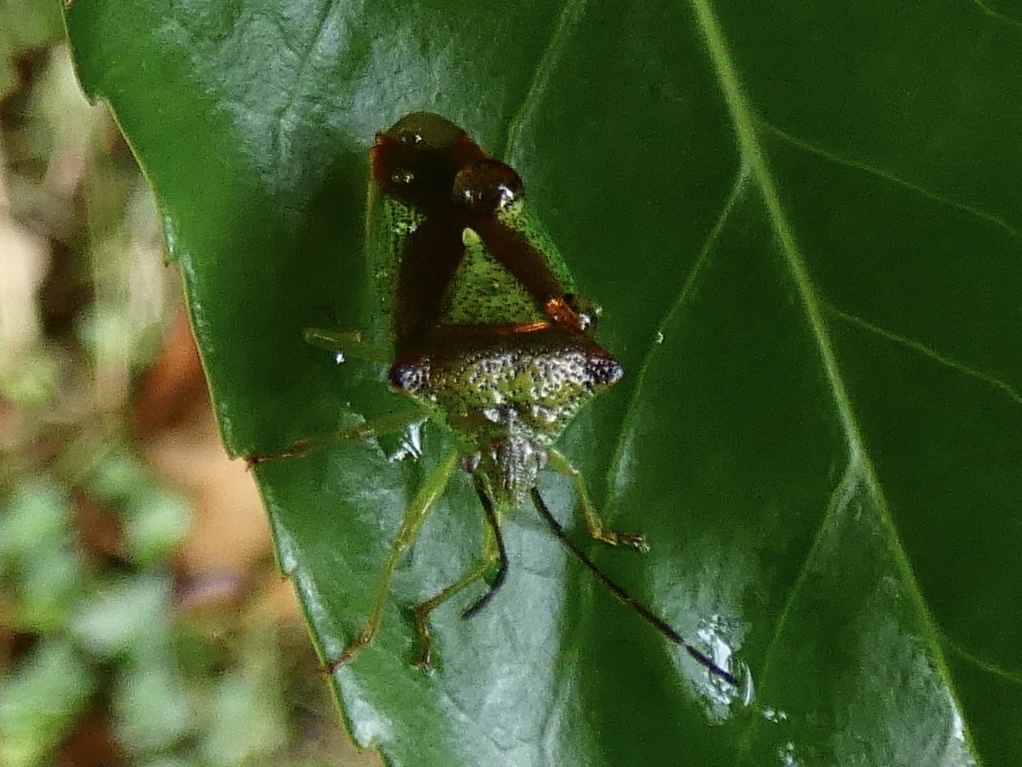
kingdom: Animalia
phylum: Arthropoda
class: Insecta
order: Hemiptera
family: Acanthosomatidae
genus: Acanthosoma
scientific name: Acanthosoma haemorrhoidale
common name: Hawthorn shieldbug
